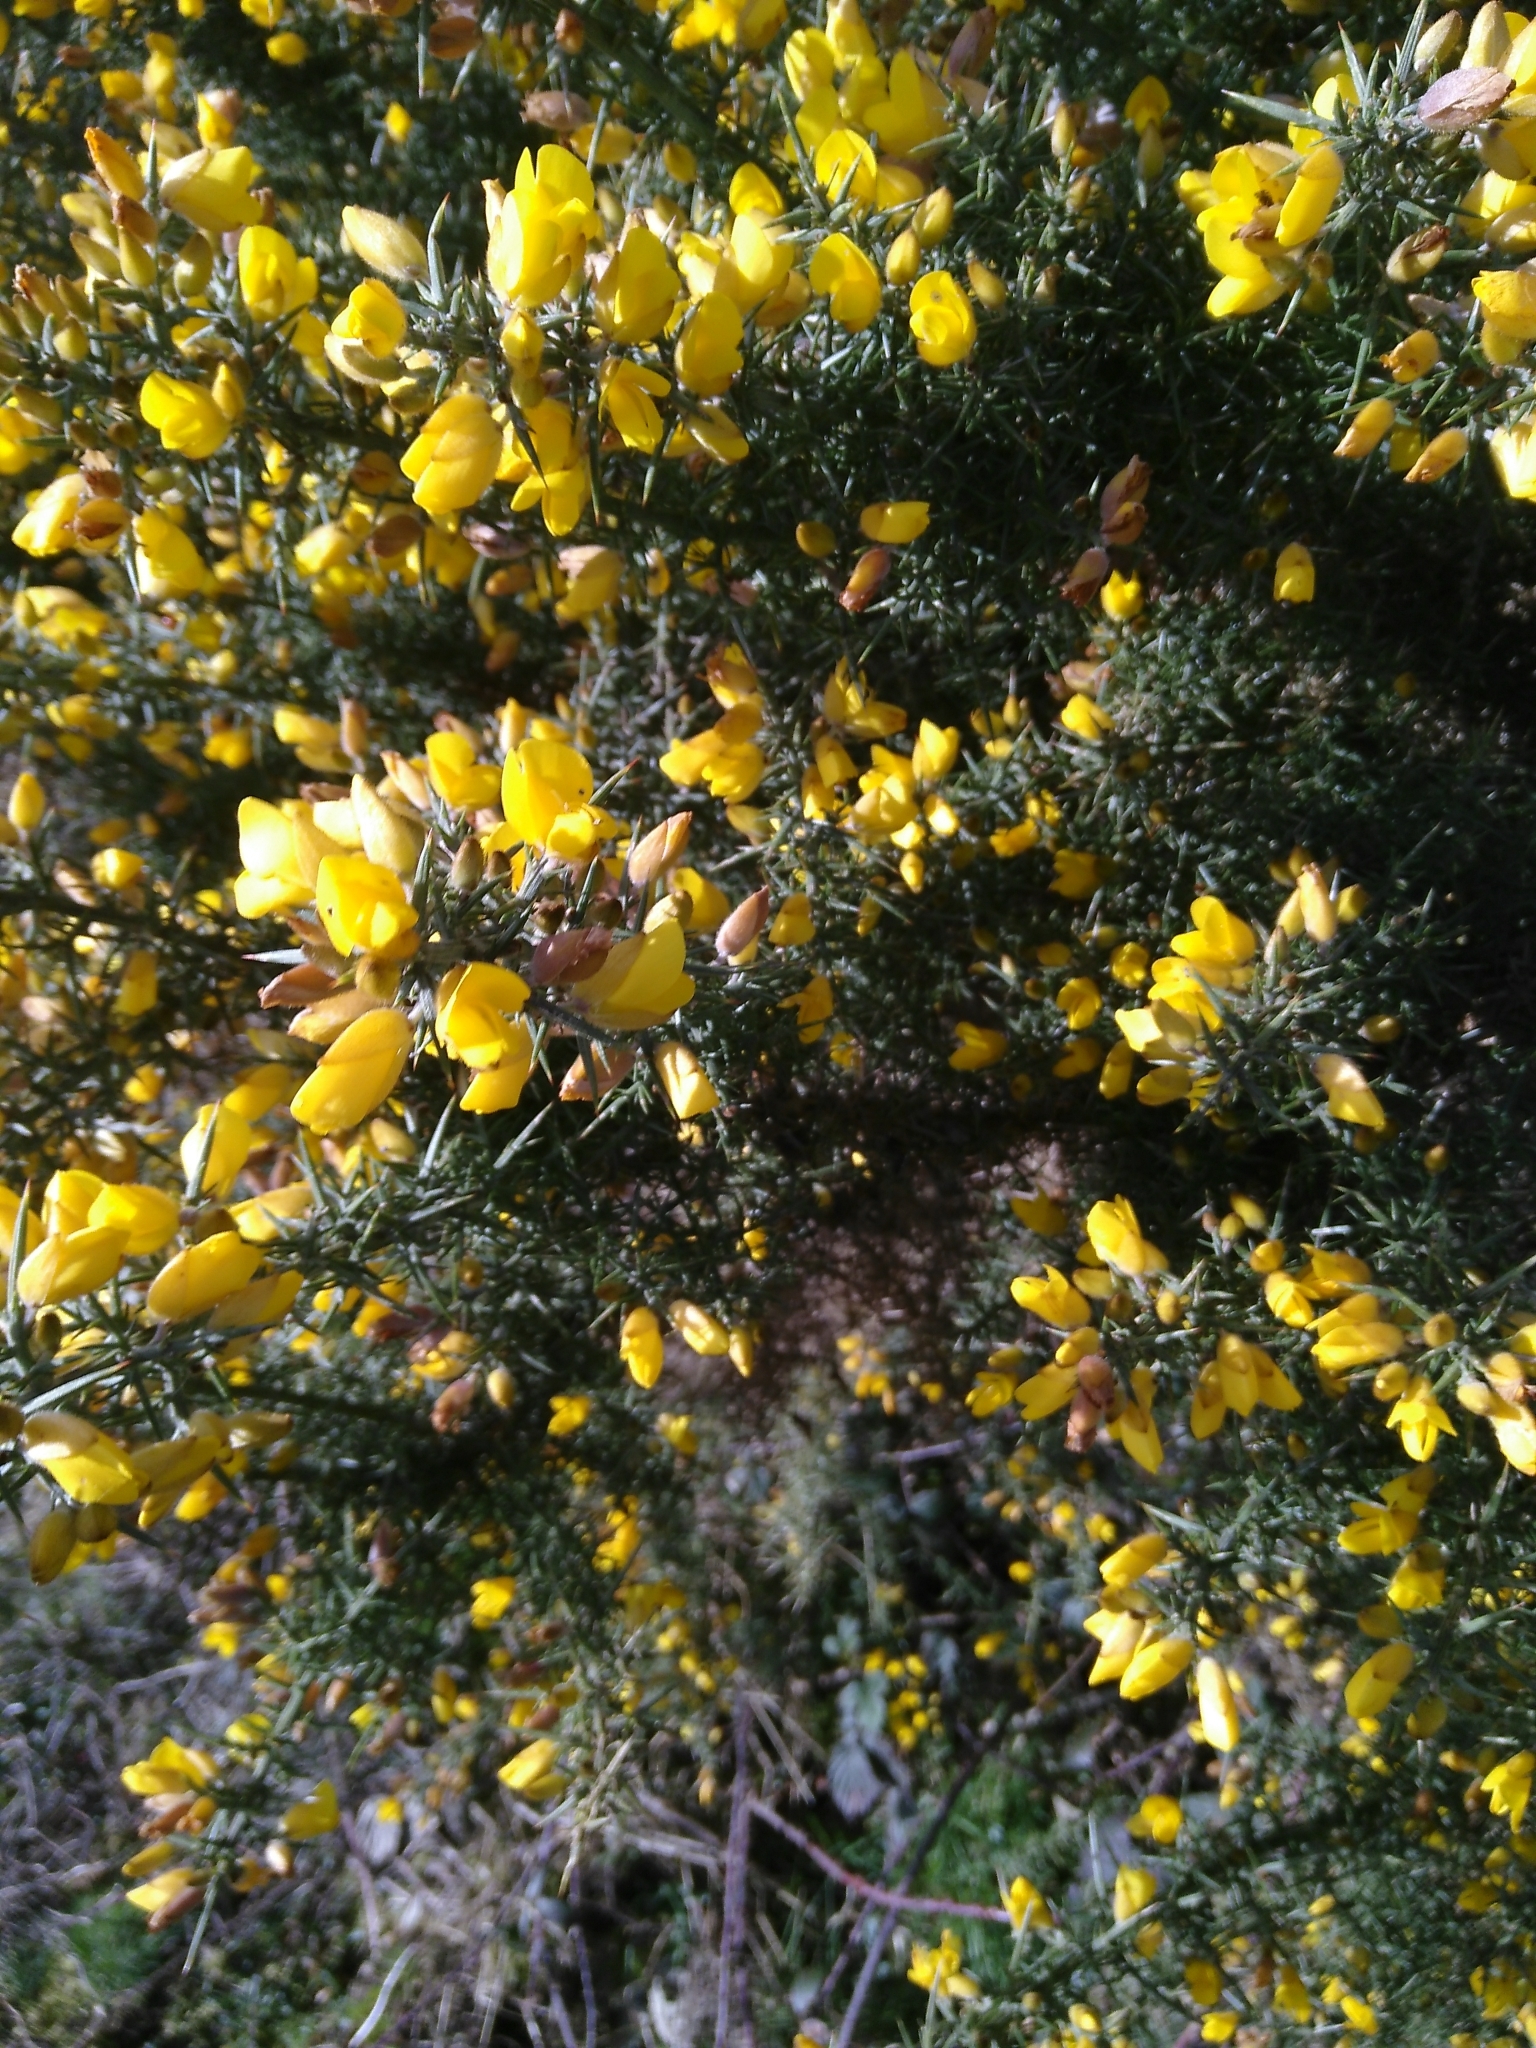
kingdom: Plantae
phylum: Tracheophyta
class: Magnoliopsida
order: Fabales
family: Fabaceae
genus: Ulex
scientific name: Ulex europaeus
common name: Common gorse
